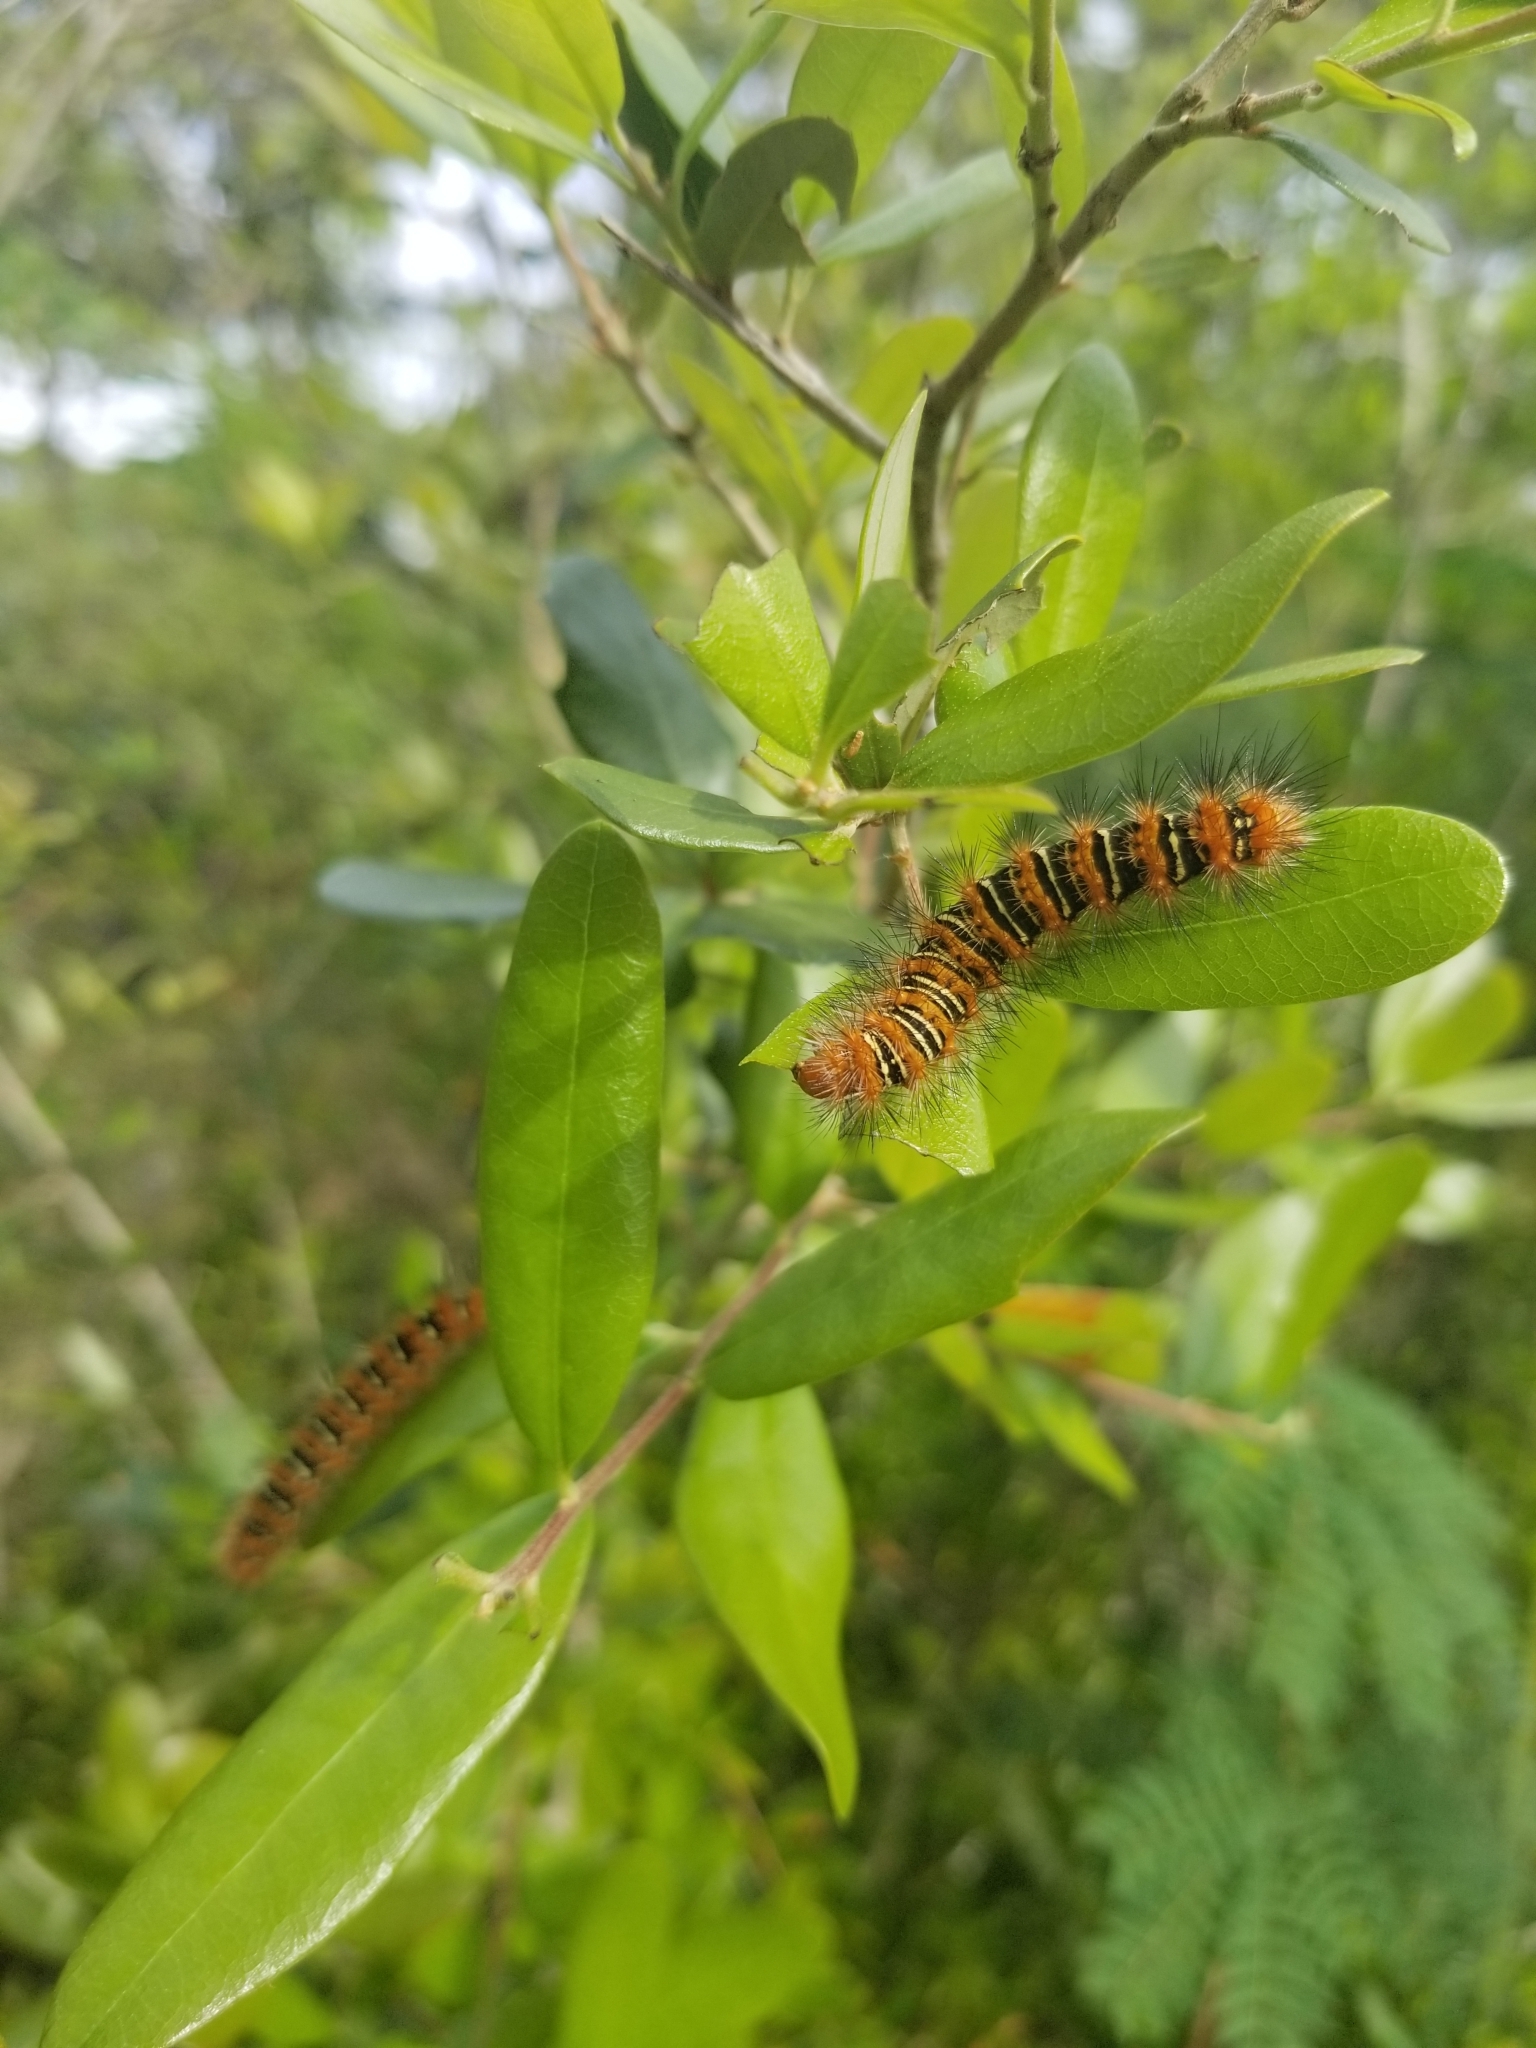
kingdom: Animalia
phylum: Arthropoda
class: Insecta
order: Lepidoptera
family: Erebidae
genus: Seirarctia
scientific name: Seirarctia echo
